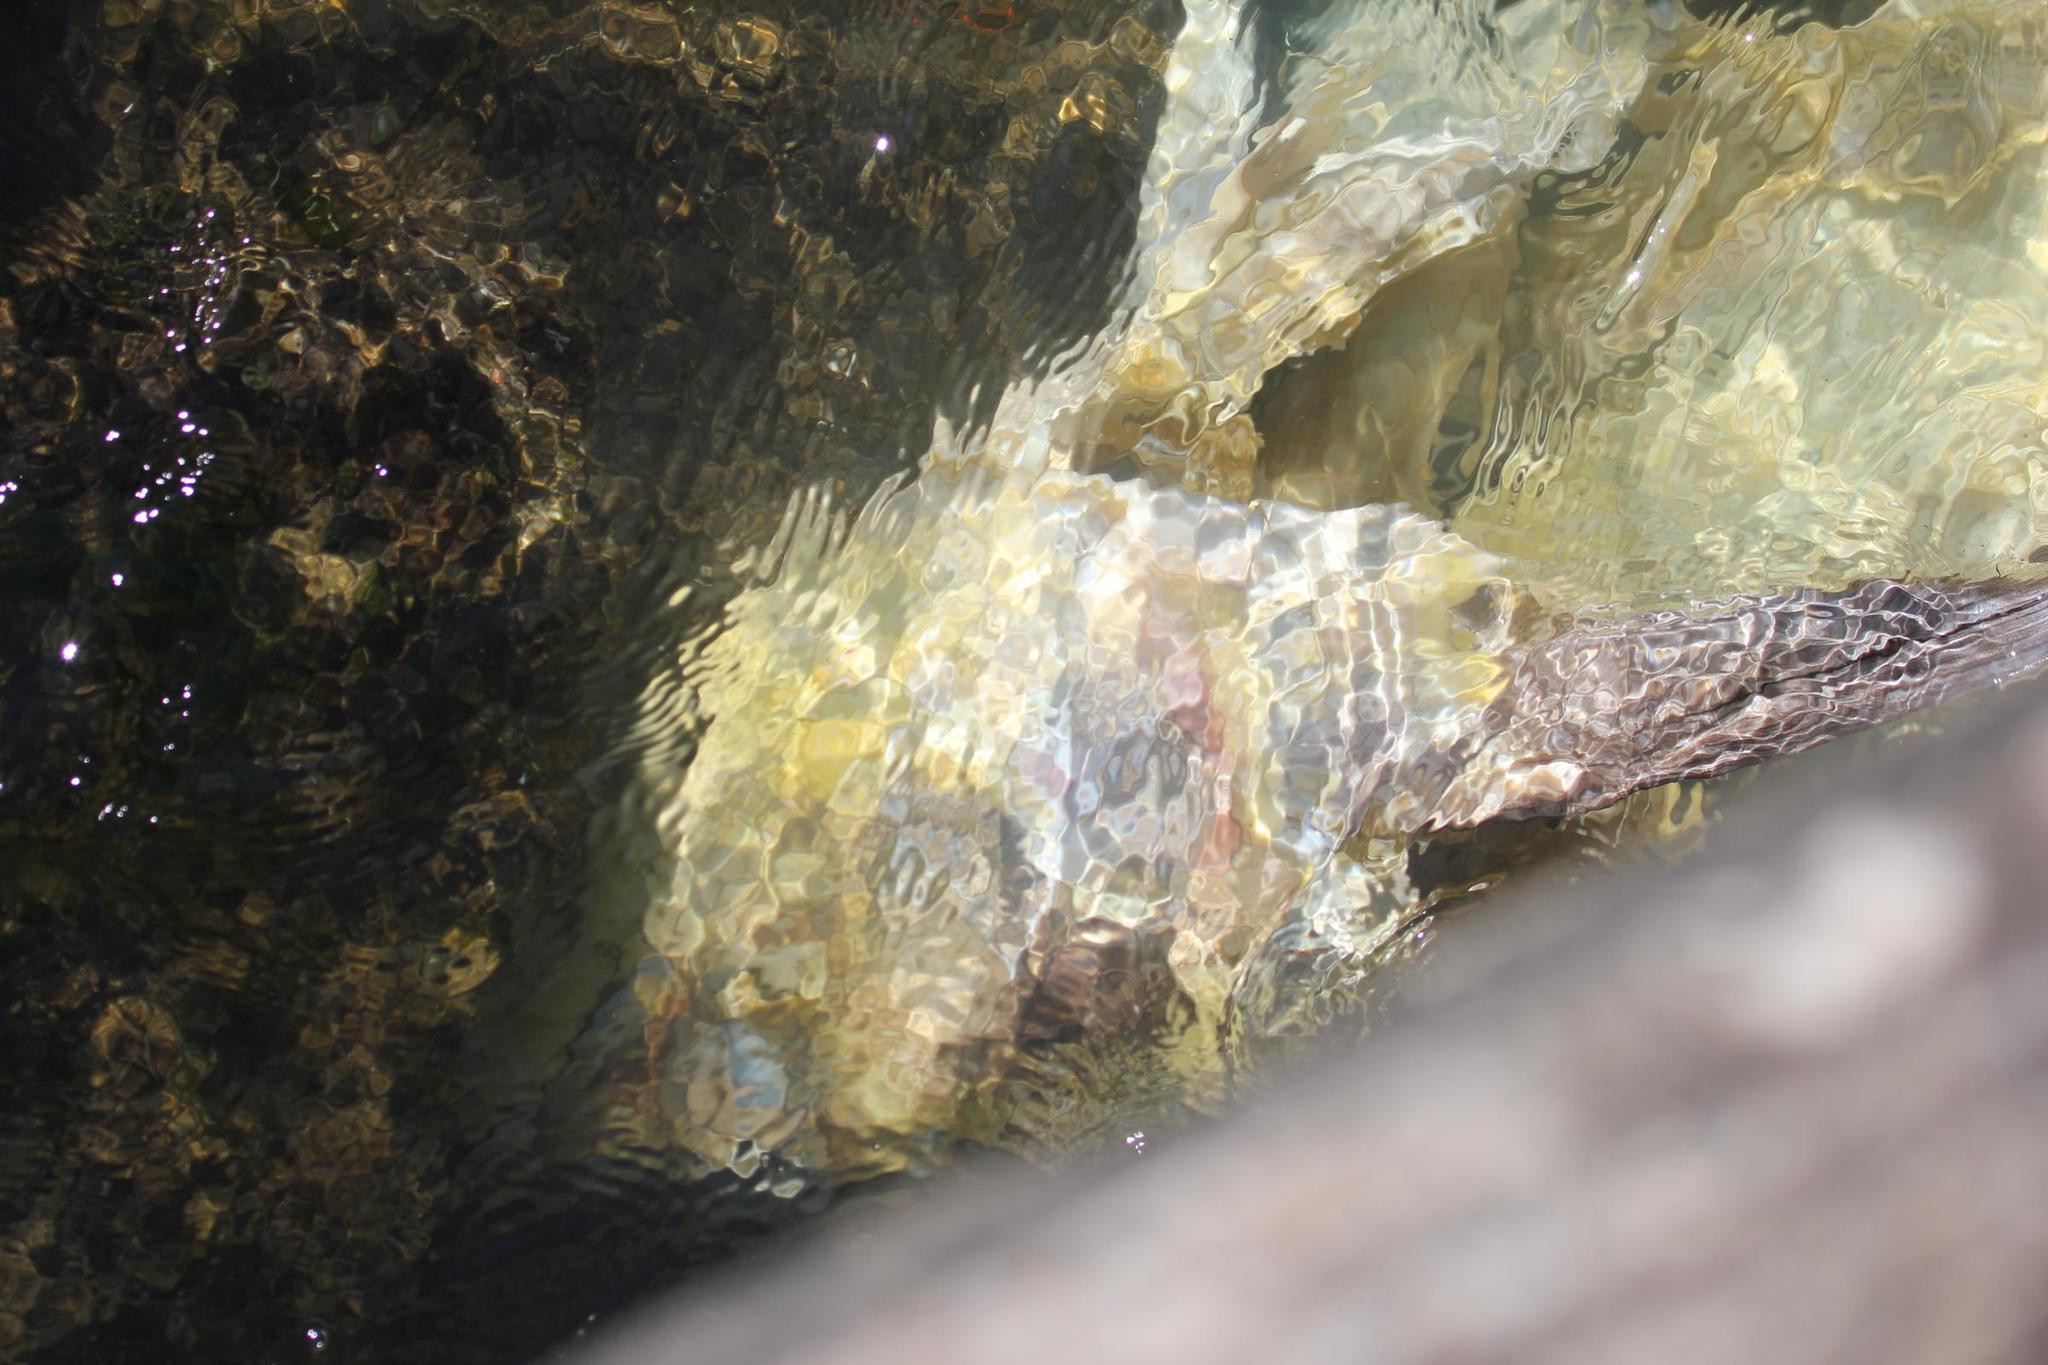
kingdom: Animalia
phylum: Chordata
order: Perciformes
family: Scombridae
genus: Thunnus
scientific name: Thunnus albacares
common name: Yellowfin tuna
